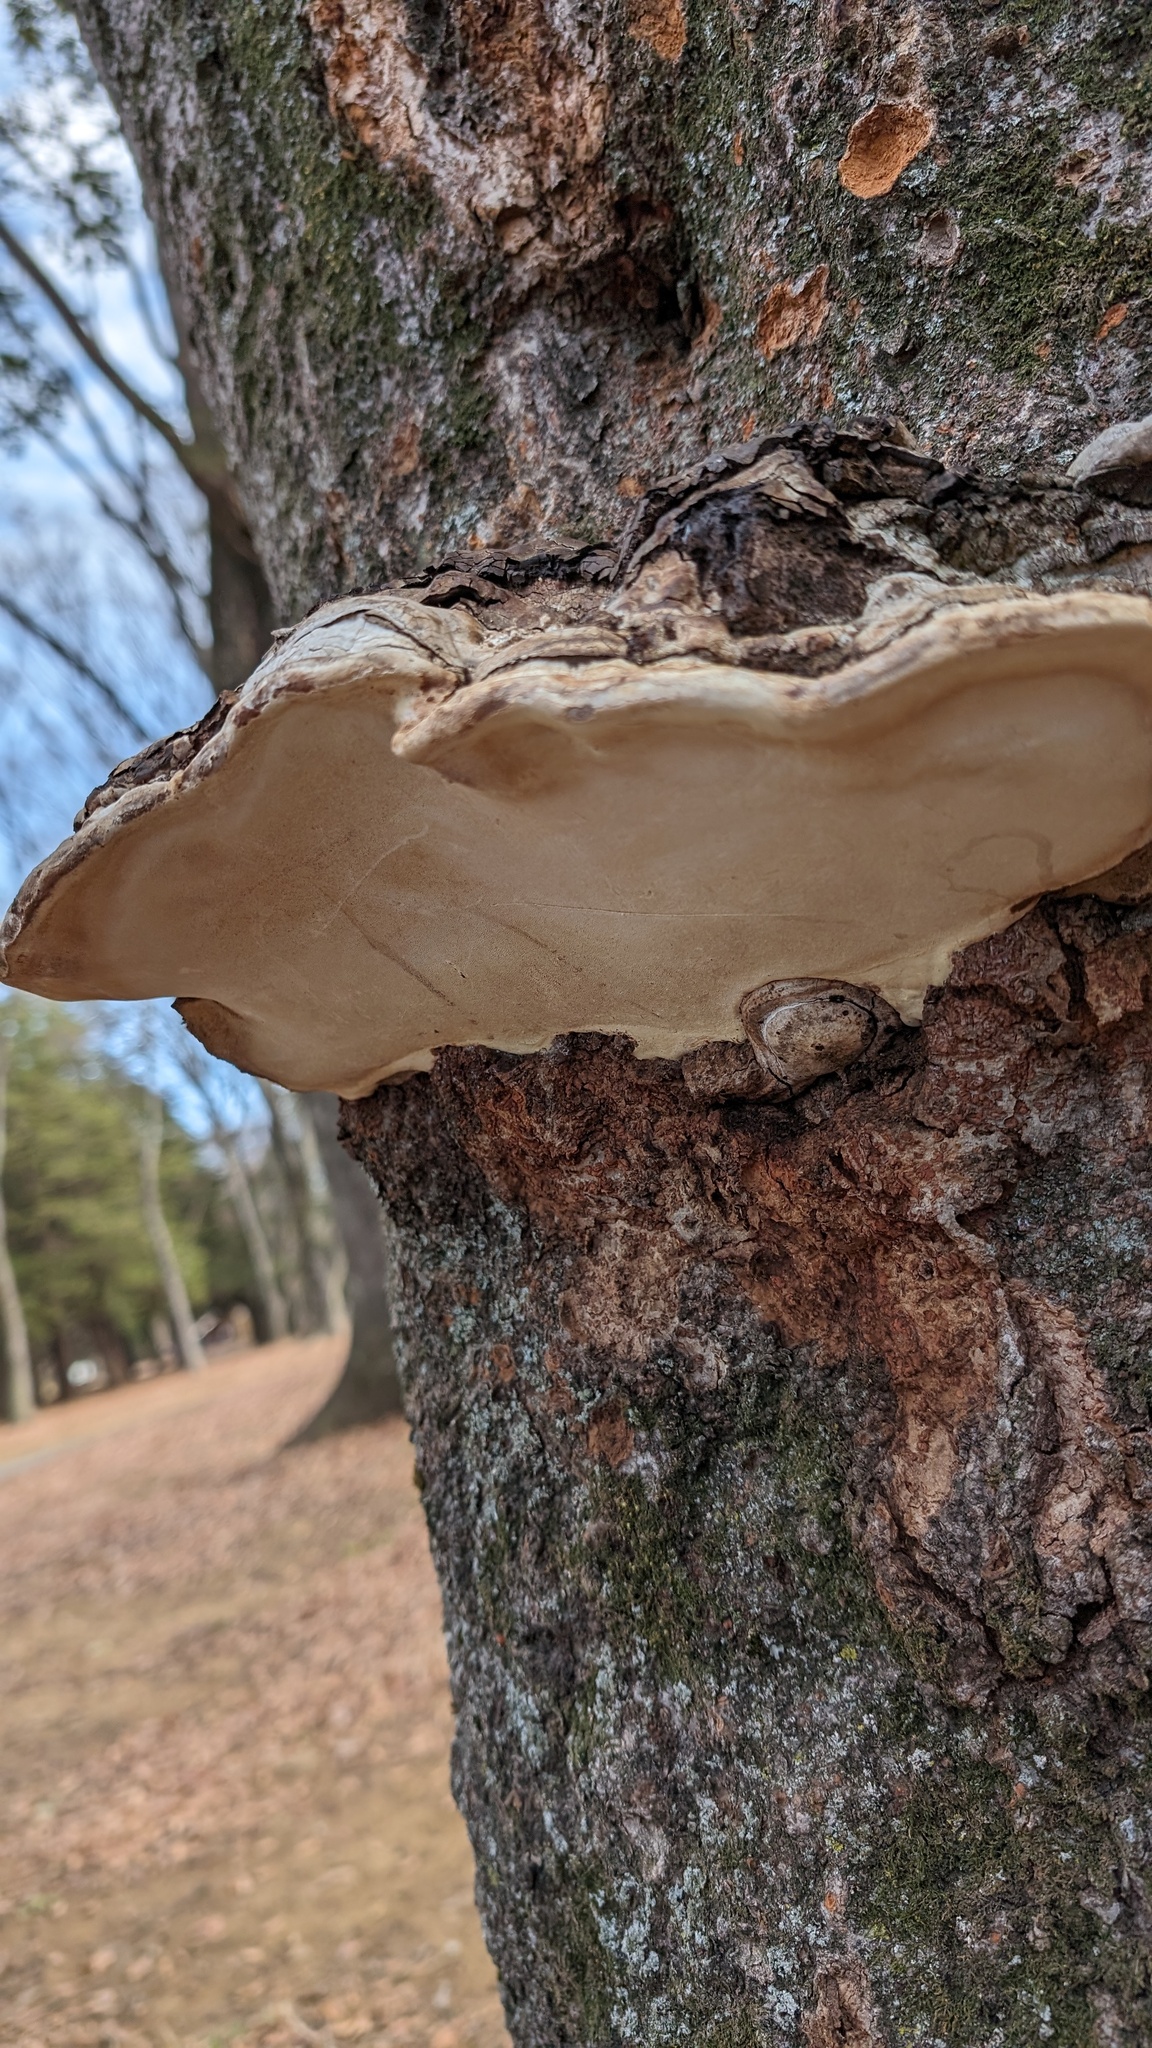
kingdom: Fungi
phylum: Basidiomycota
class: Agaricomycetes
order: Polyporales
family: Polyporaceae
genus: Ganoderma
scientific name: Ganoderma applanatum
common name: Artist's bracket
